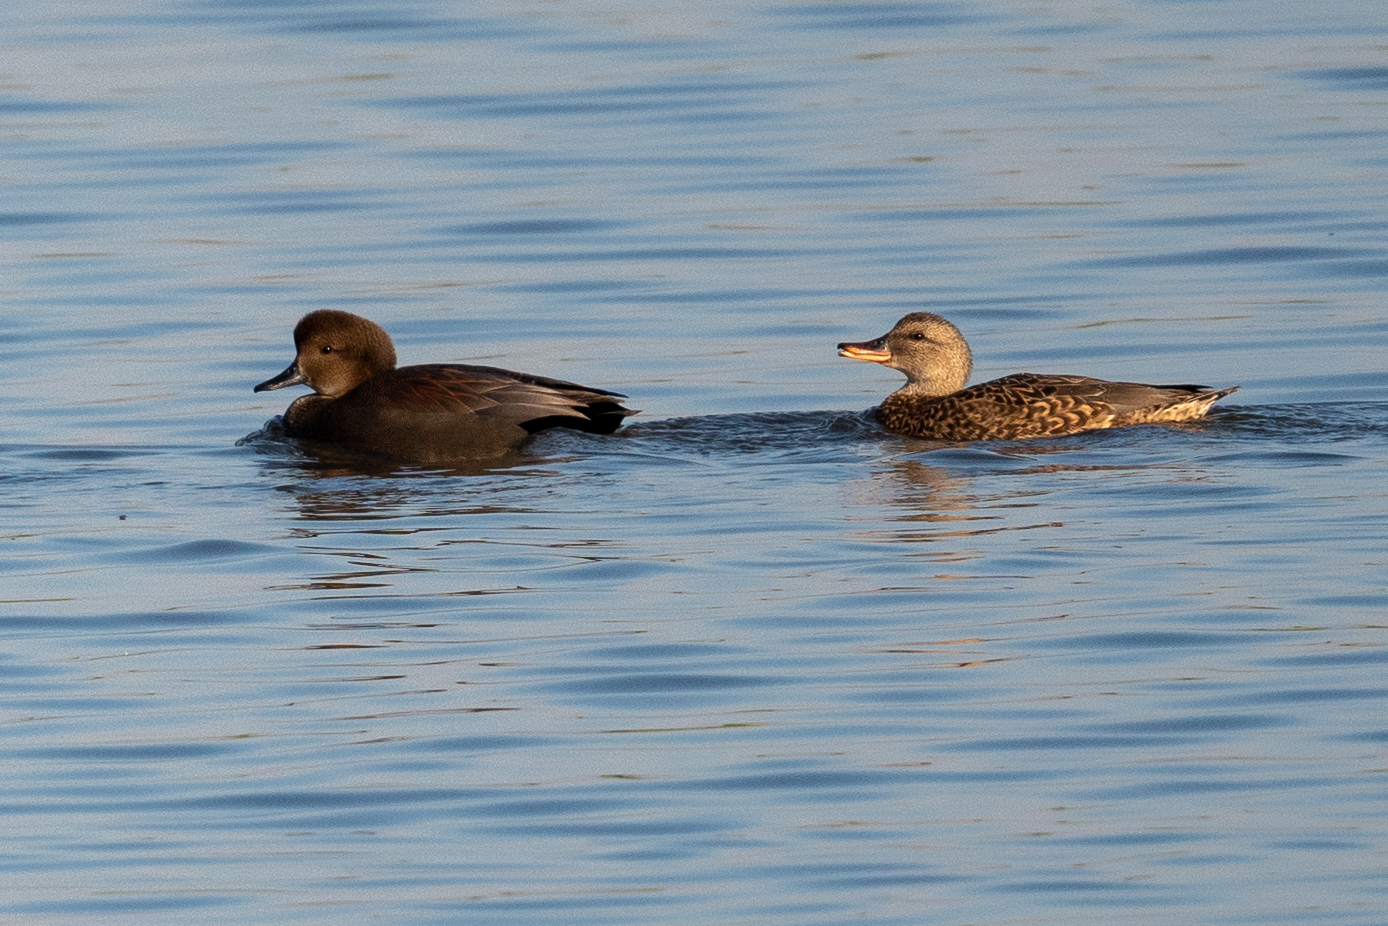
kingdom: Animalia
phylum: Chordata
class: Aves
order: Anseriformes
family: Anatidae
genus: Mareca
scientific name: Mareca strepera
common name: Gadwall
